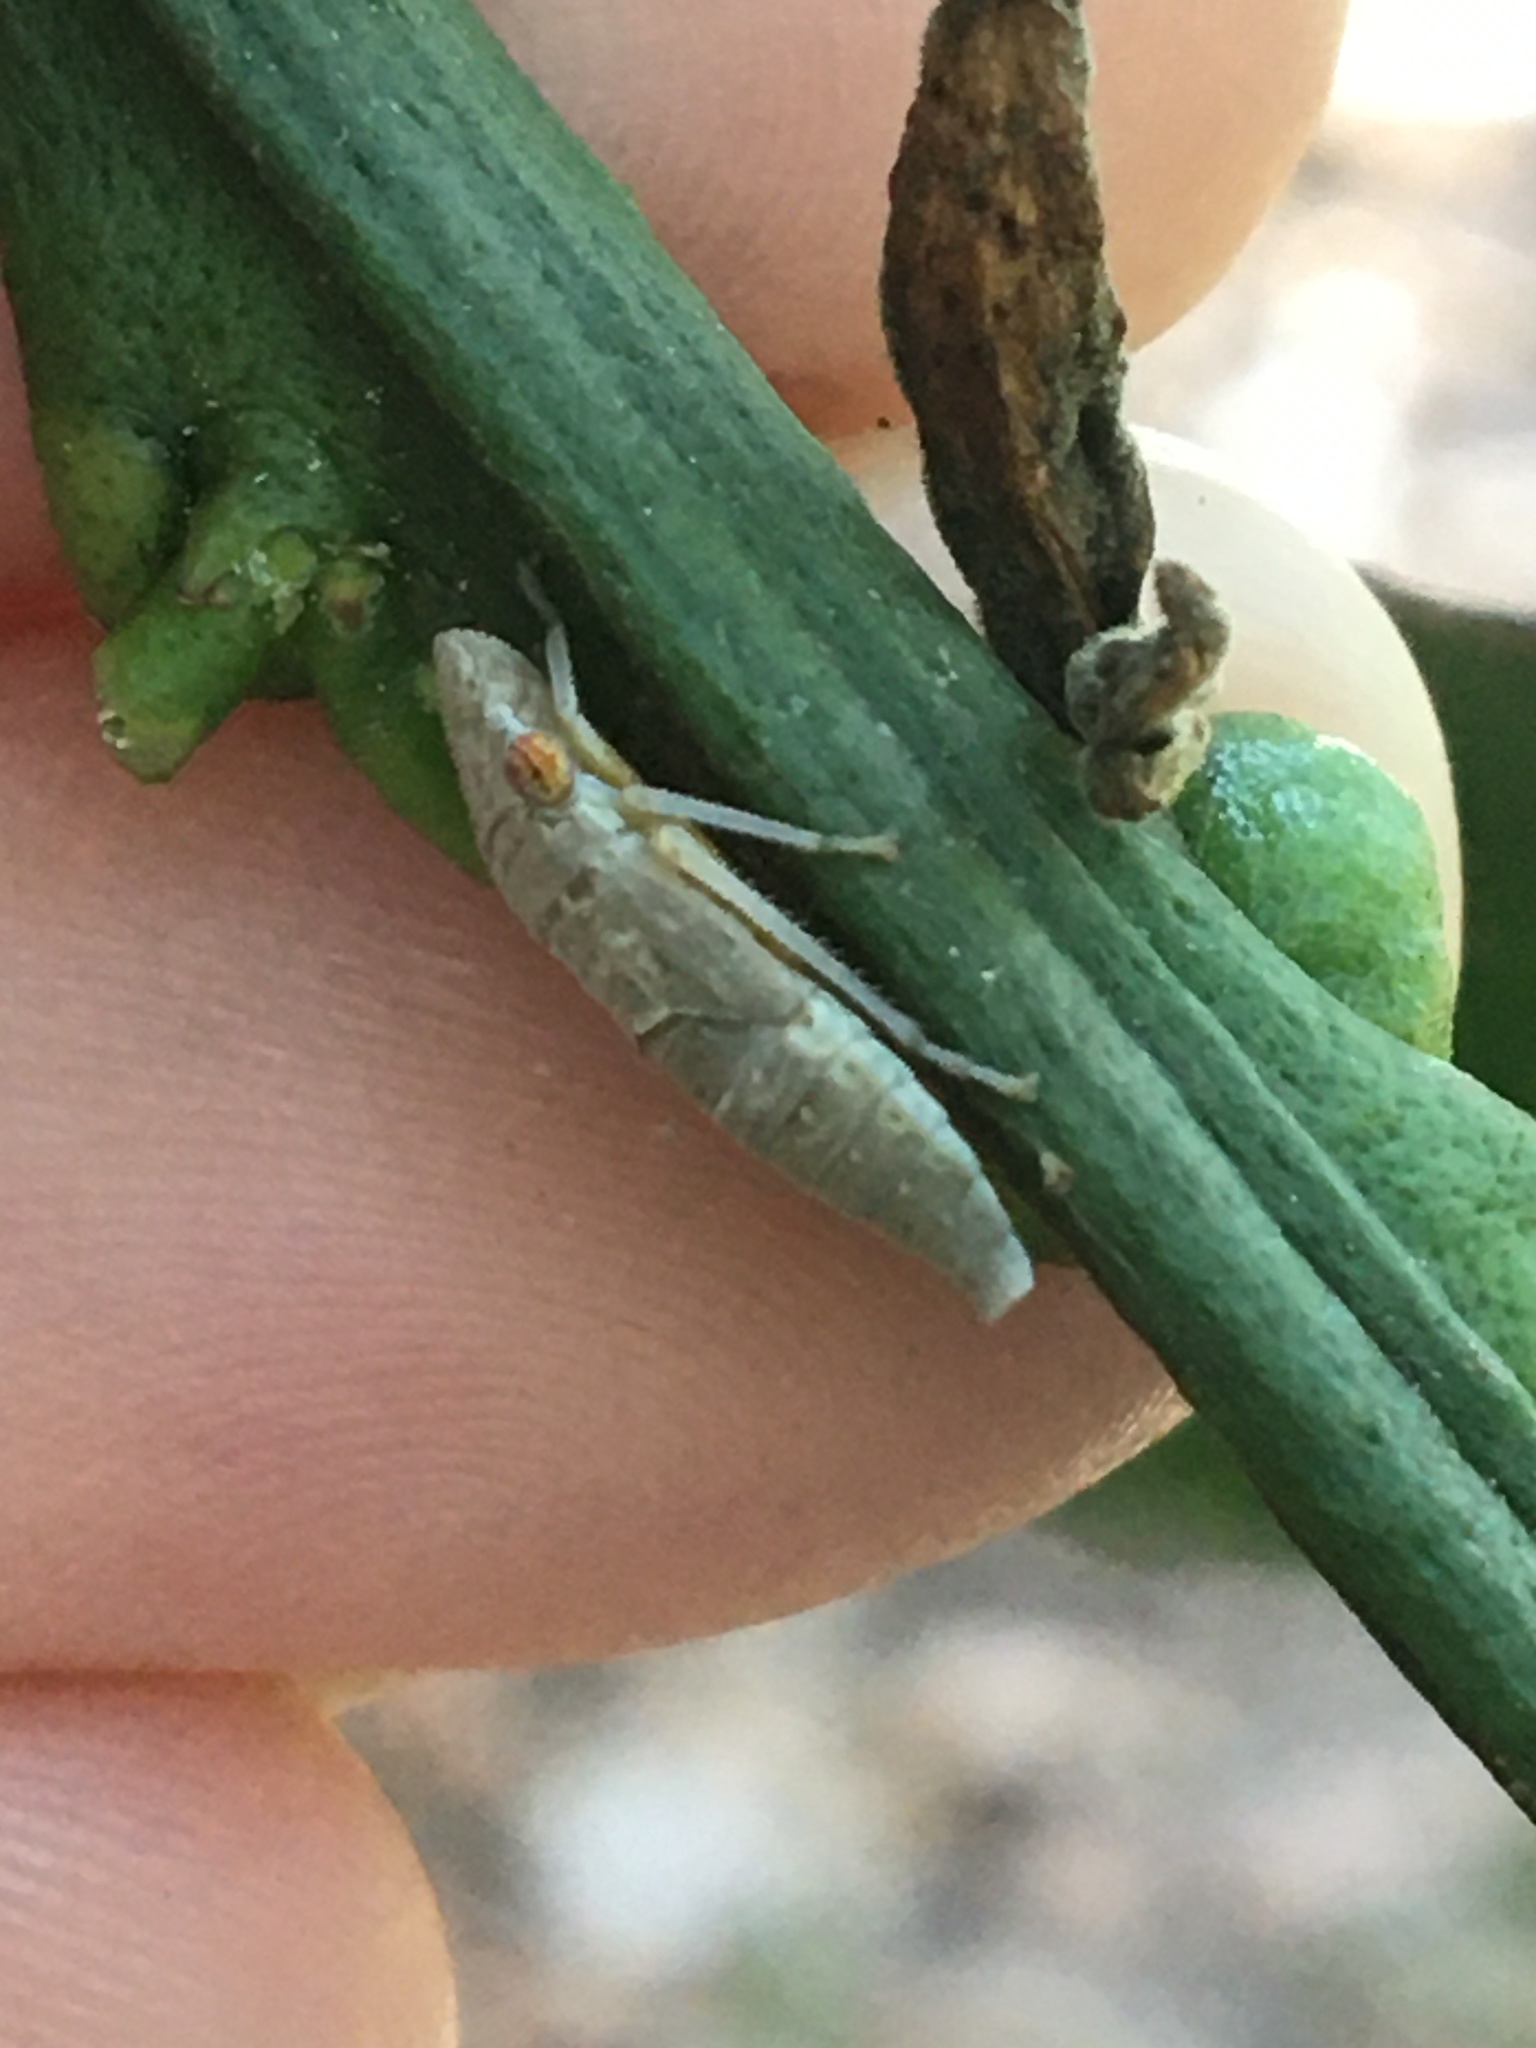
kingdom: Animalia
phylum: Arthropoda
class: Insecta
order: Hemiptera
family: Cicadellidae
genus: Homalodisca
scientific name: Homalodisca vitripennis
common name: Glassy-winged sharpshooter
